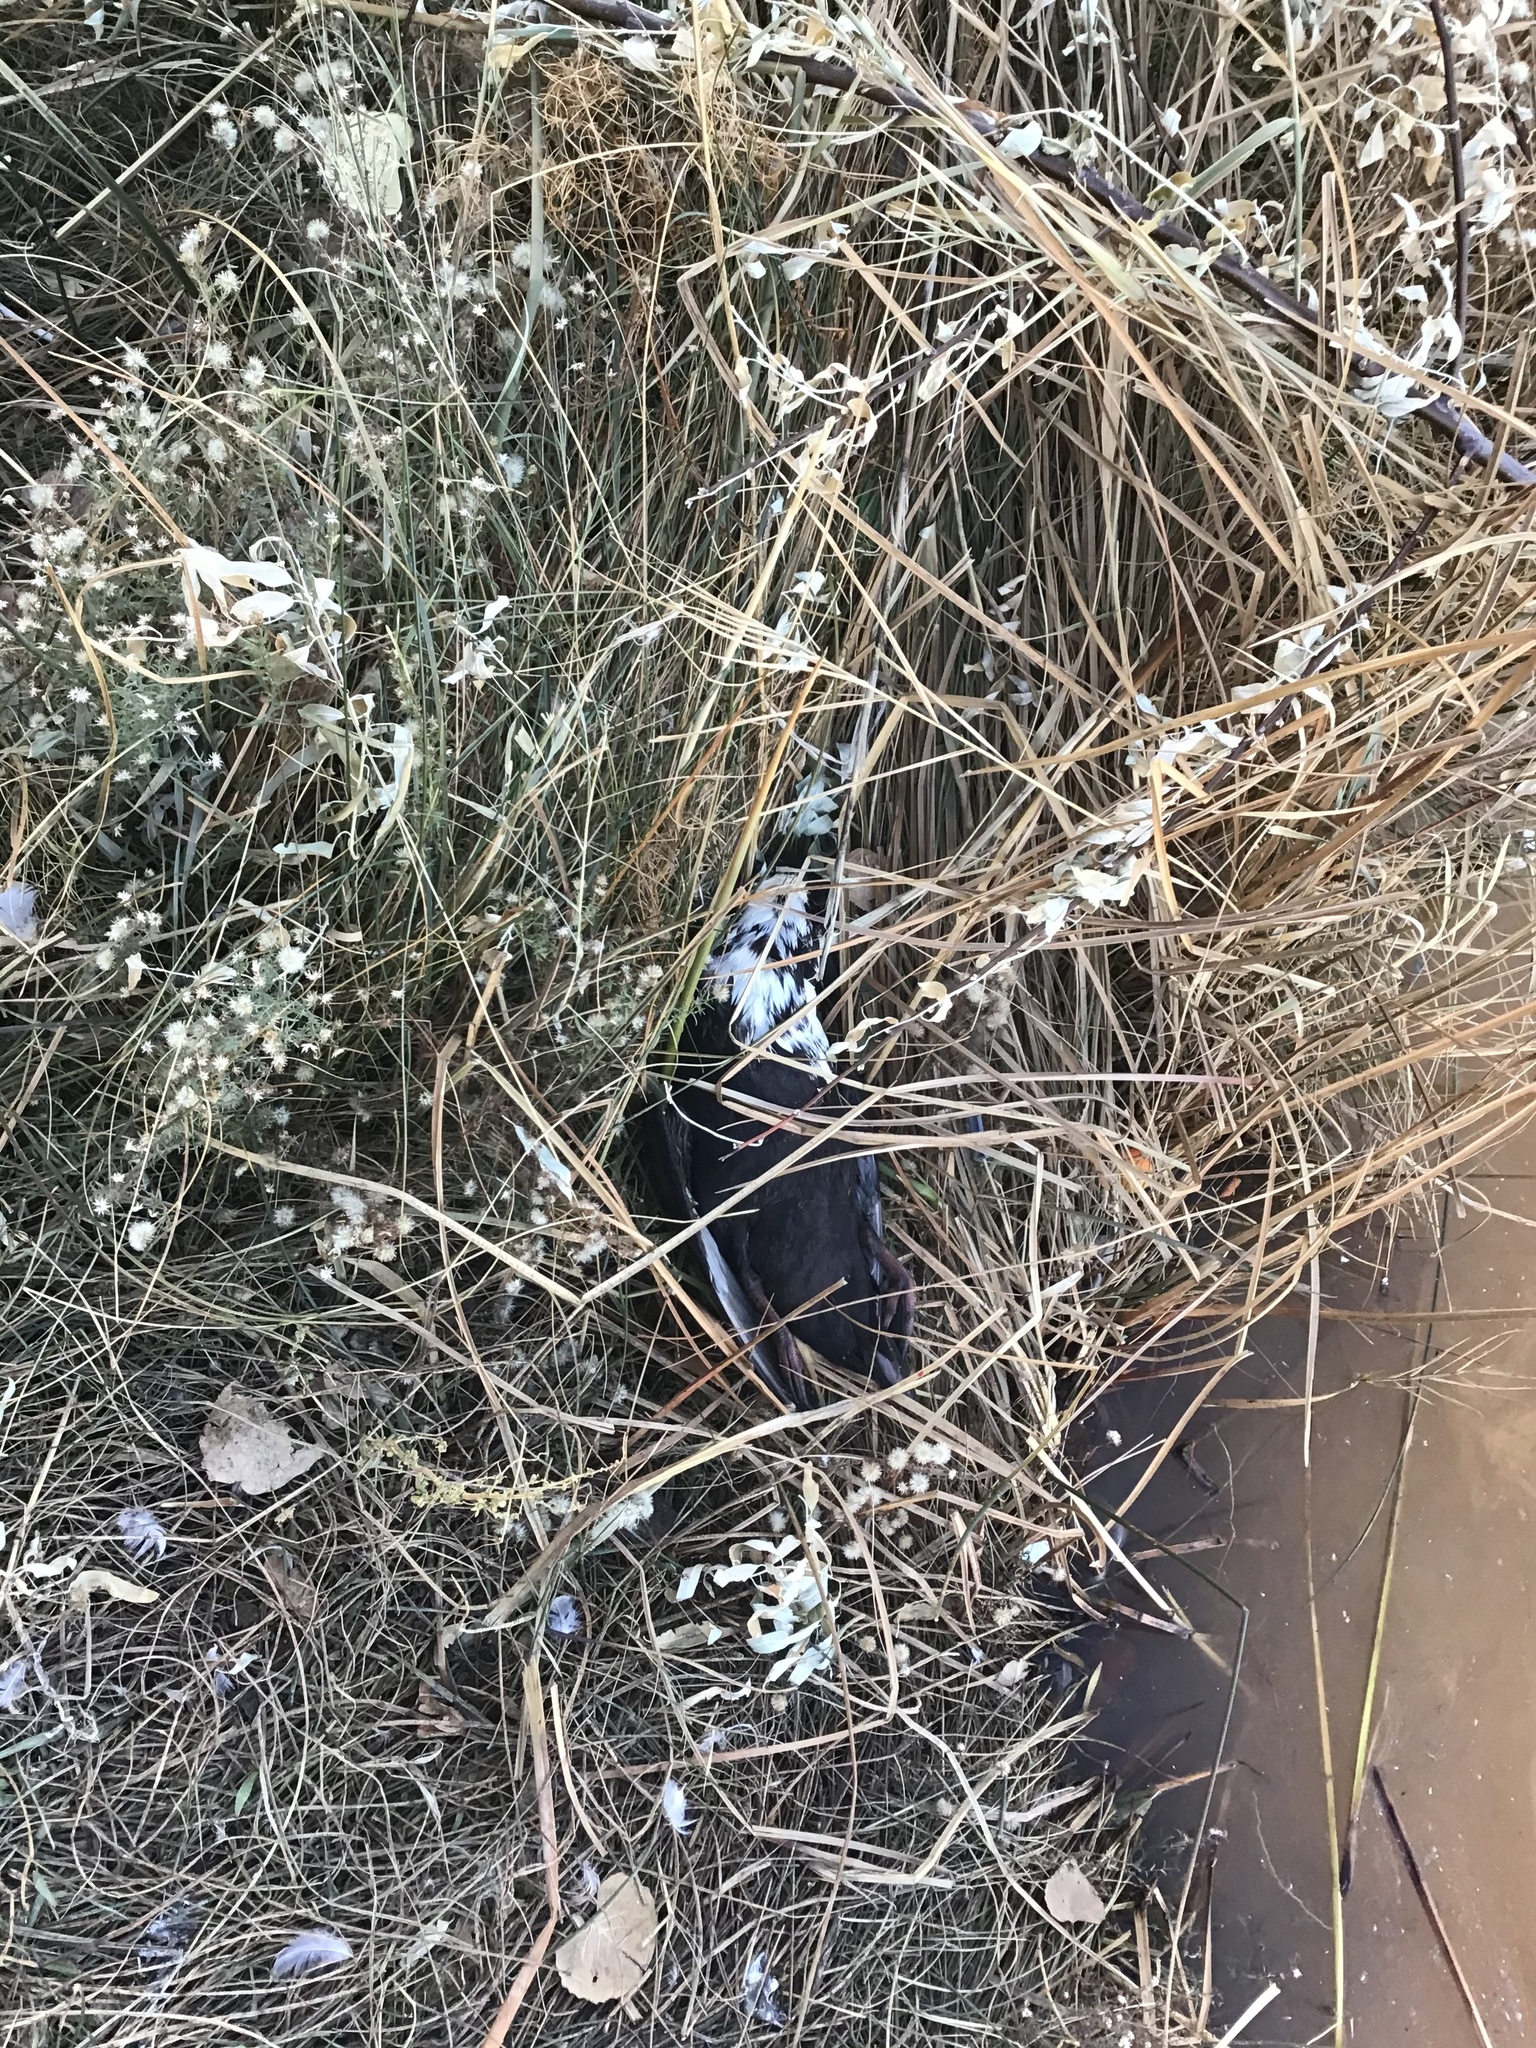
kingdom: Animalia
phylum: Chordata
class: Aves
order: Anseriformes
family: Anatidae
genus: Anas
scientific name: Anas platyrhynchos
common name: Mallard
